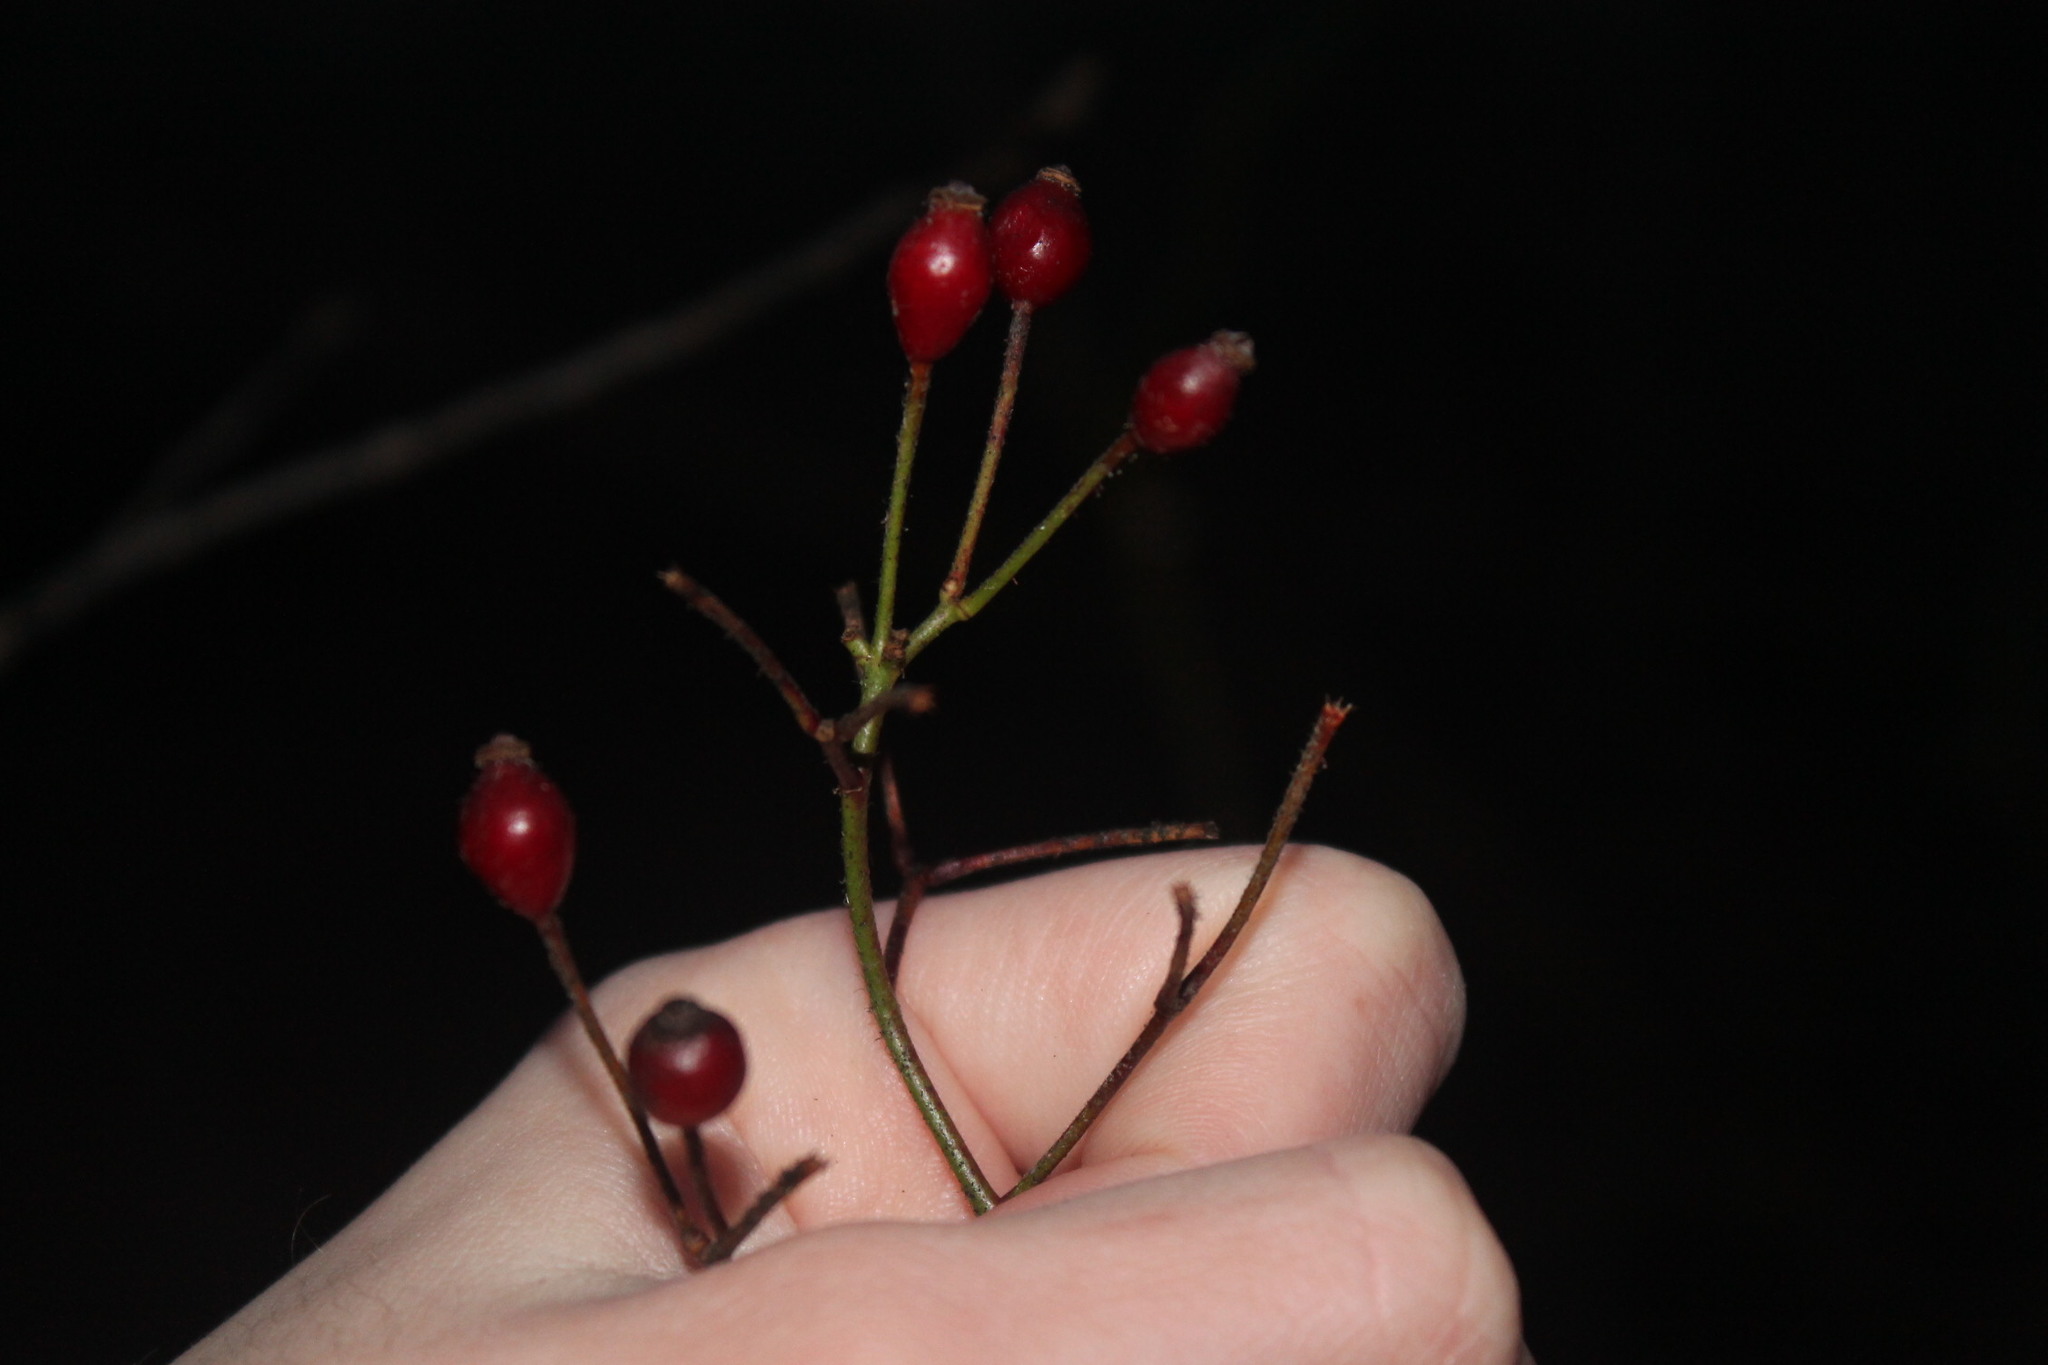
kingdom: Plantae
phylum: Tracheophyta
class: Magnoliopsida
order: Rosales
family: Rosaceae
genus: Rosa
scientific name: Rosa multiflora
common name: Multiflora rose
